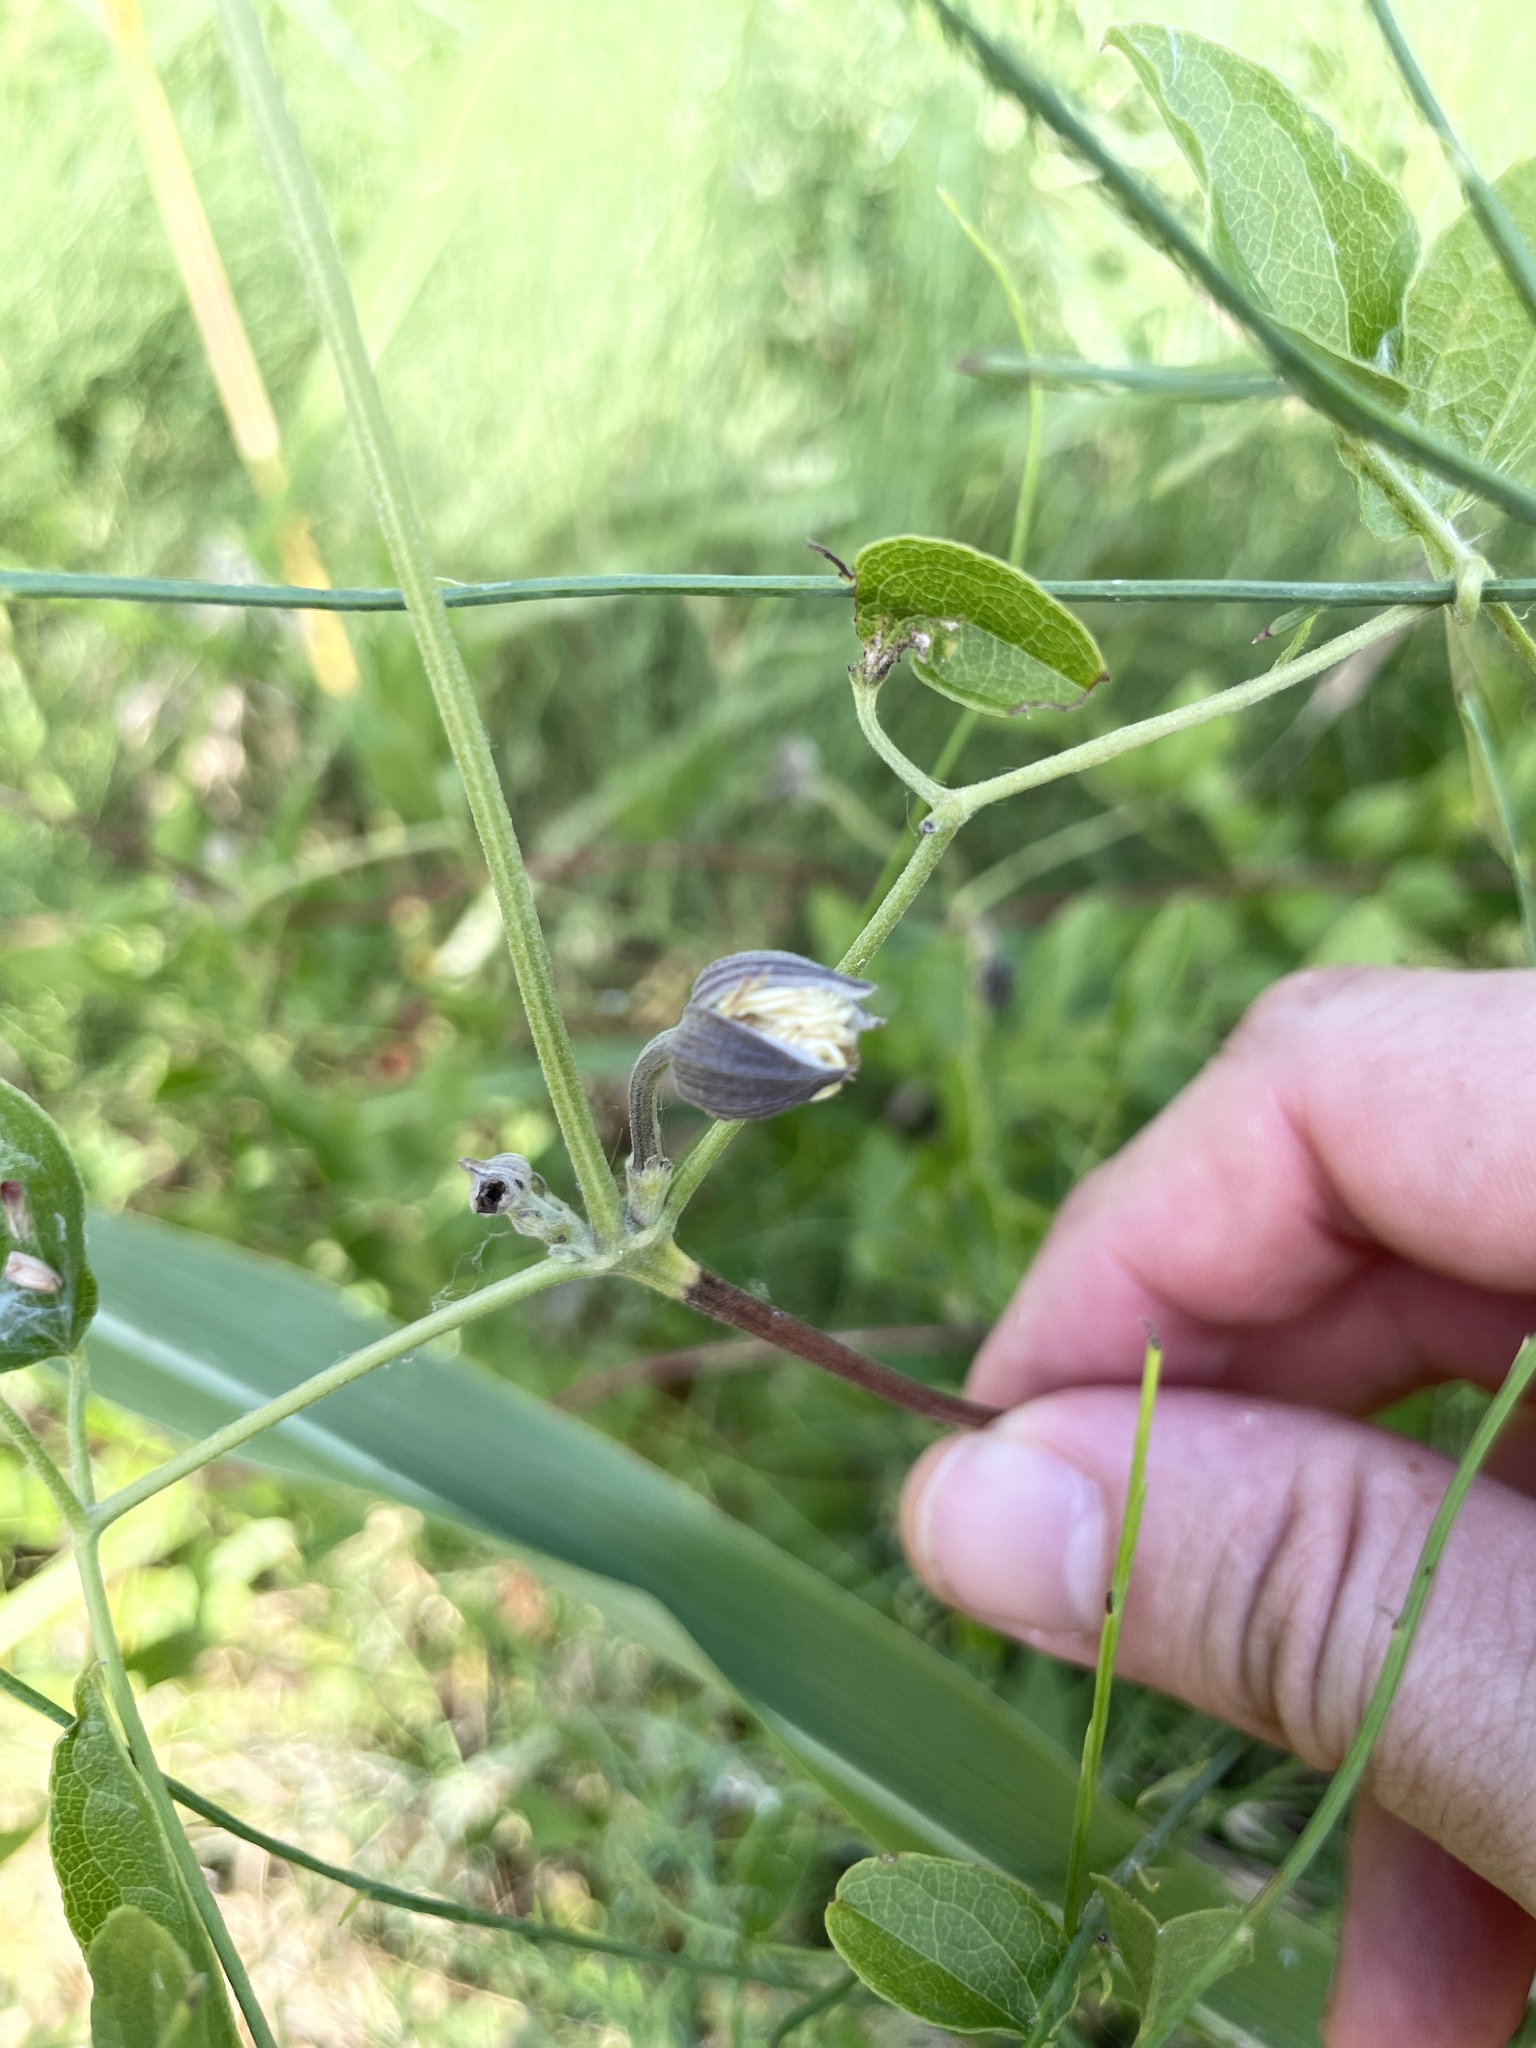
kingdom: Plantae
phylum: Tracheophyta
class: Magnoliopsida
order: Ranunculales
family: Ranunculaceae
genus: Clematis
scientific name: Clematis pitcheri
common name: Bellflower clematis
